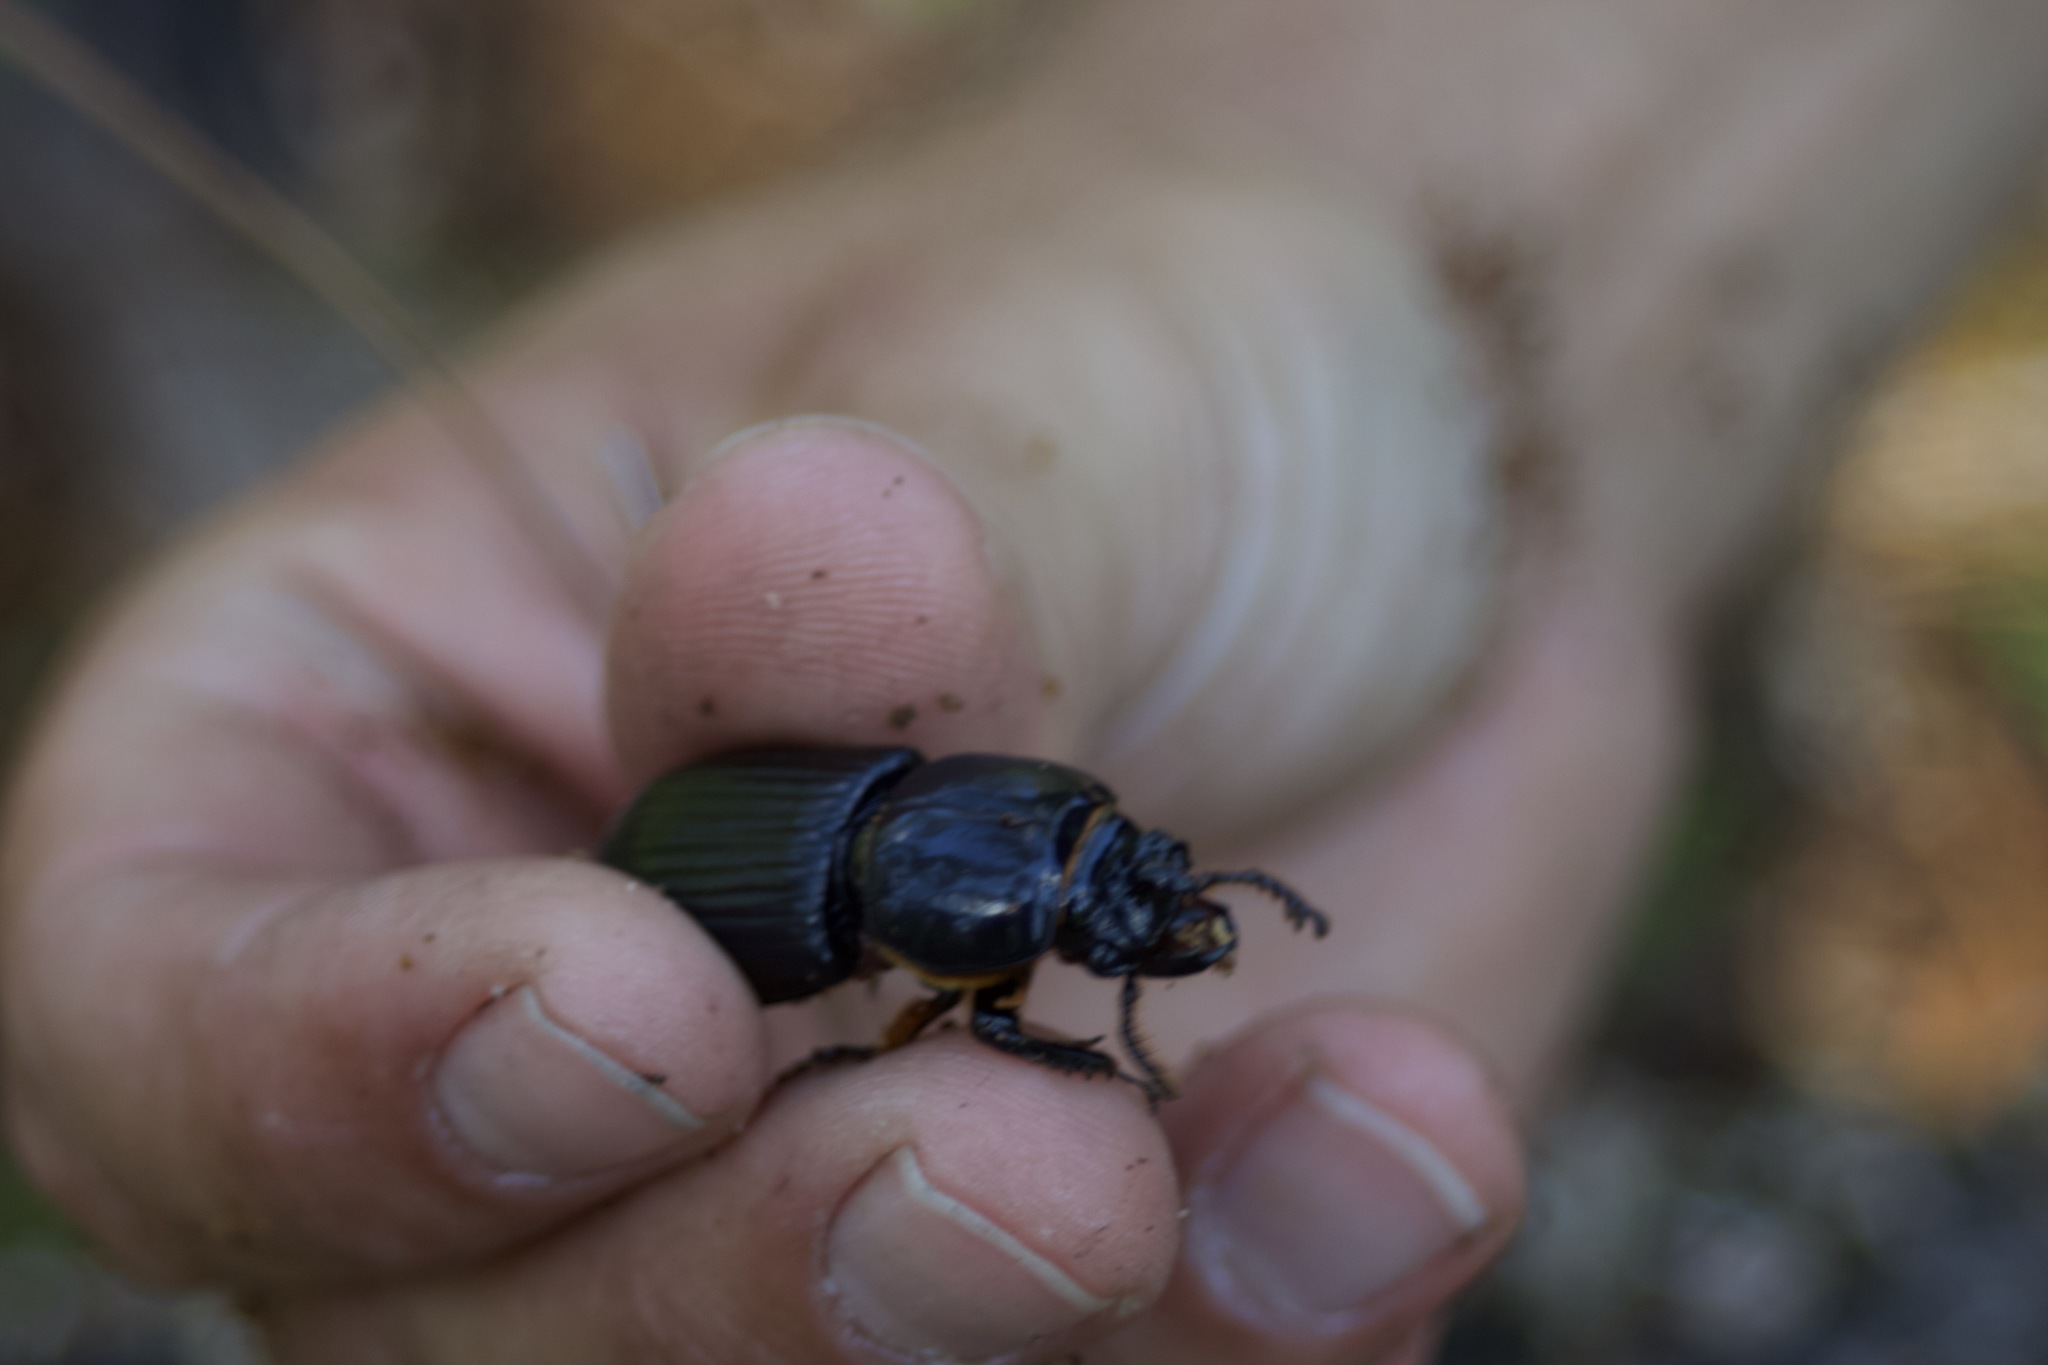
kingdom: Animalia
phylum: Arthropoda
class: Insecta
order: Coleoptera
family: Passalidae
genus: Odontotaenius
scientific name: Odontotaenius disjunctus
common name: Patent leather beetle
